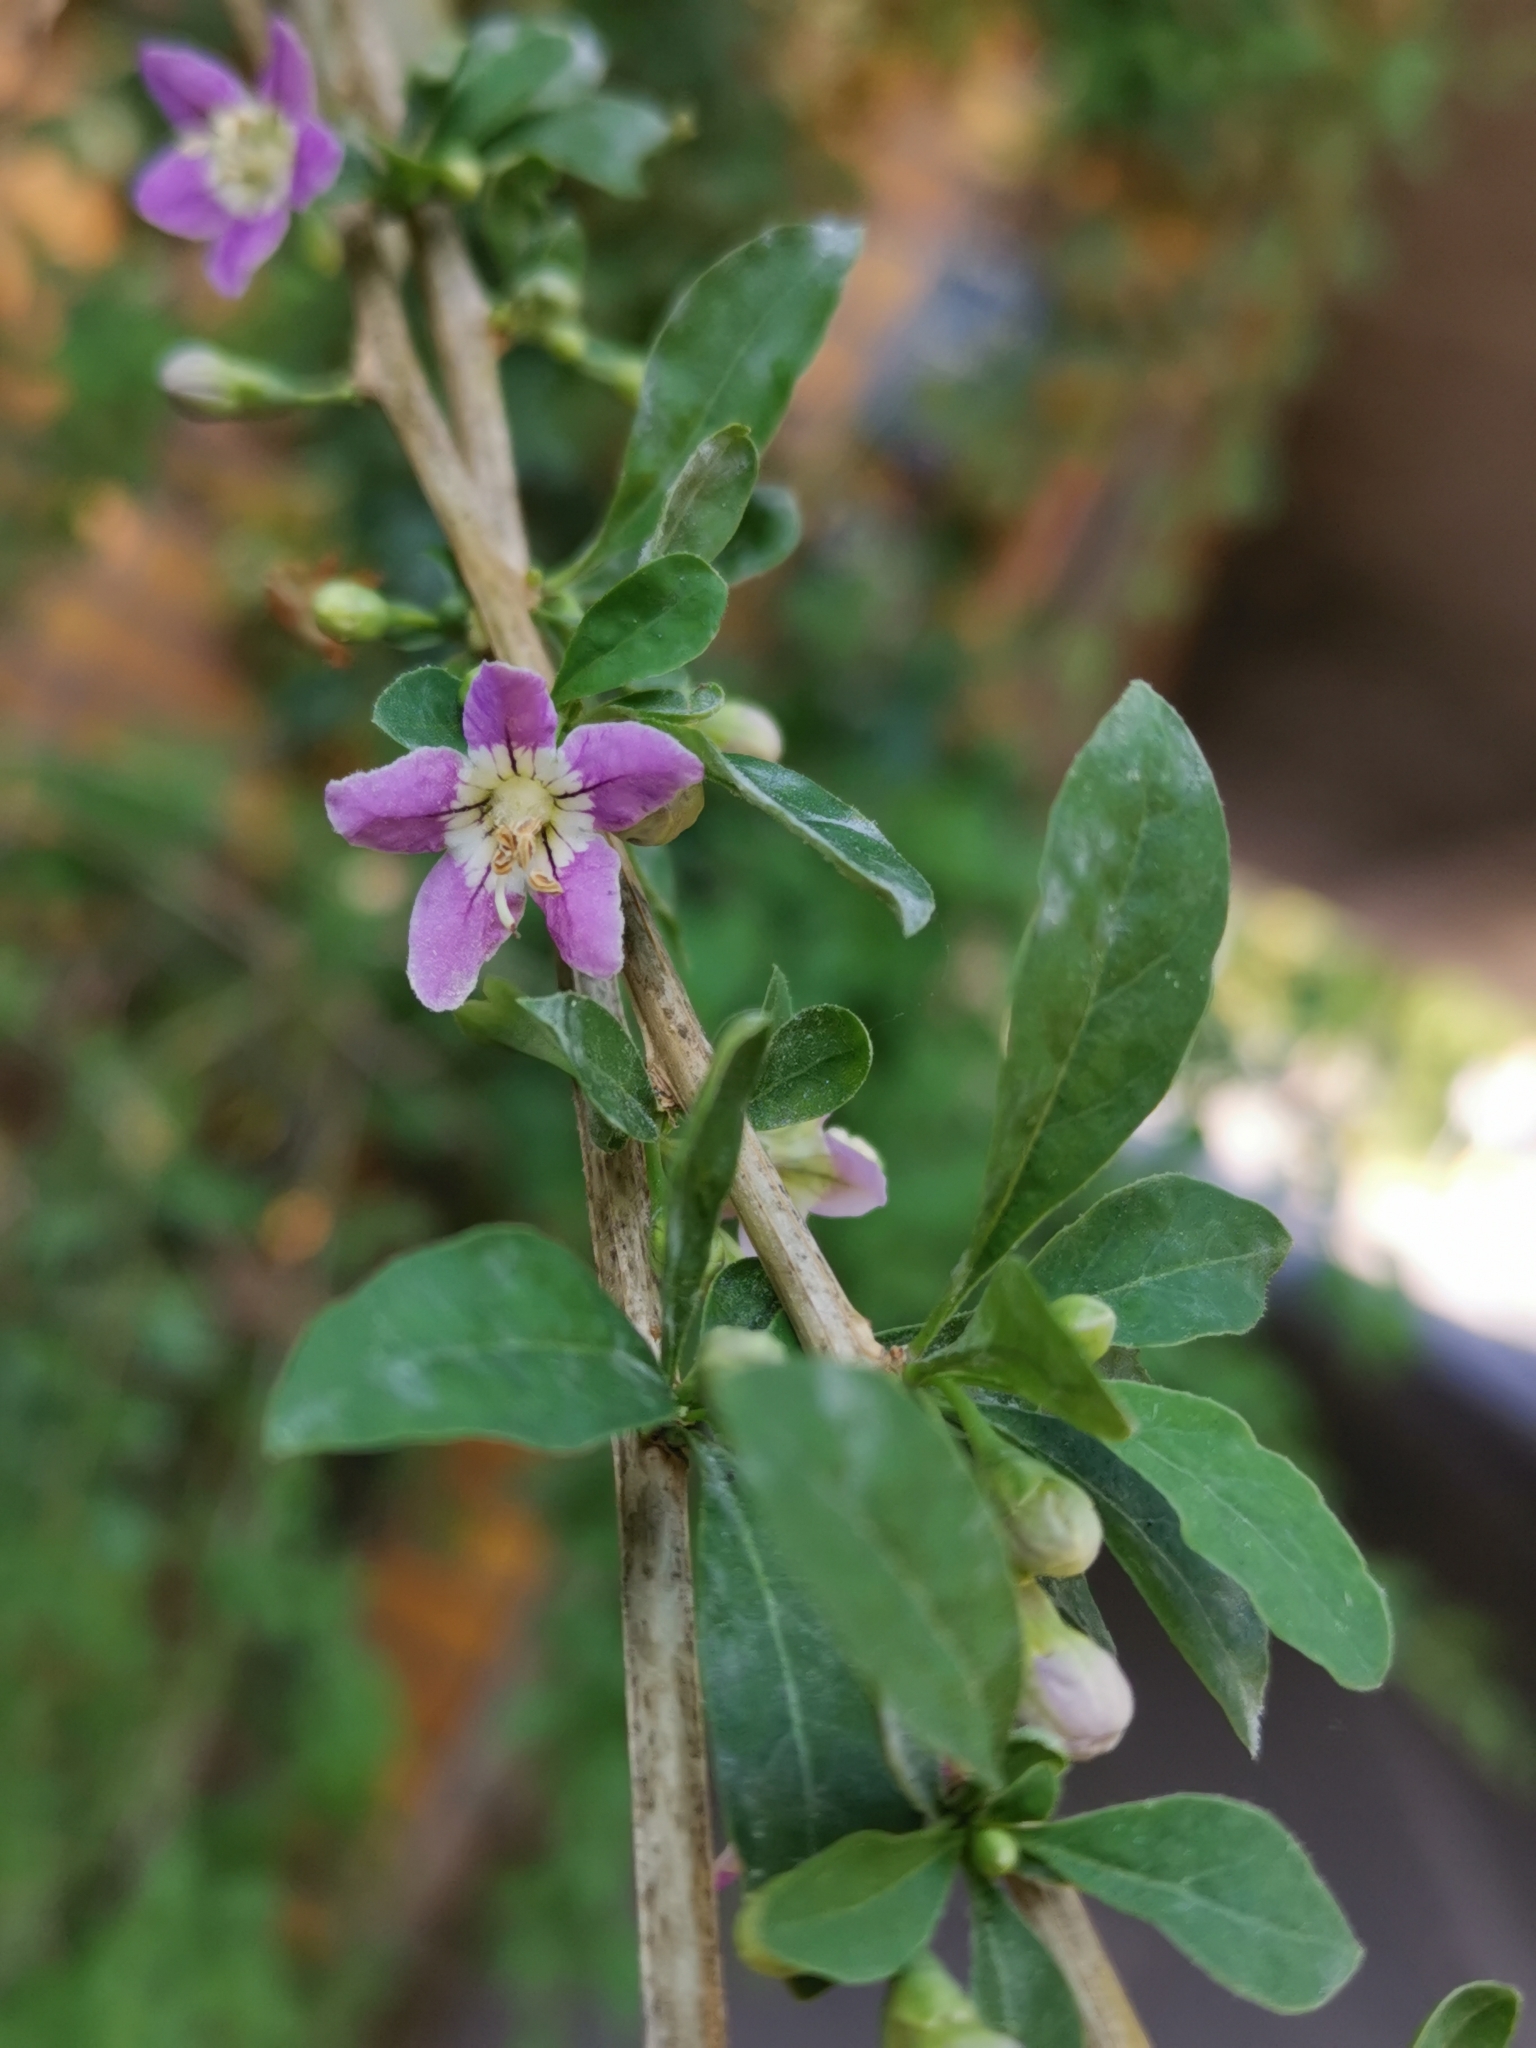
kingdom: Plantae
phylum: Tracheophyta
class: Magnoliopsida
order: Solanales
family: Solanaceae
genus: Lycium
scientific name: Lycium barbarum
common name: Duke of argyll's teaplant
